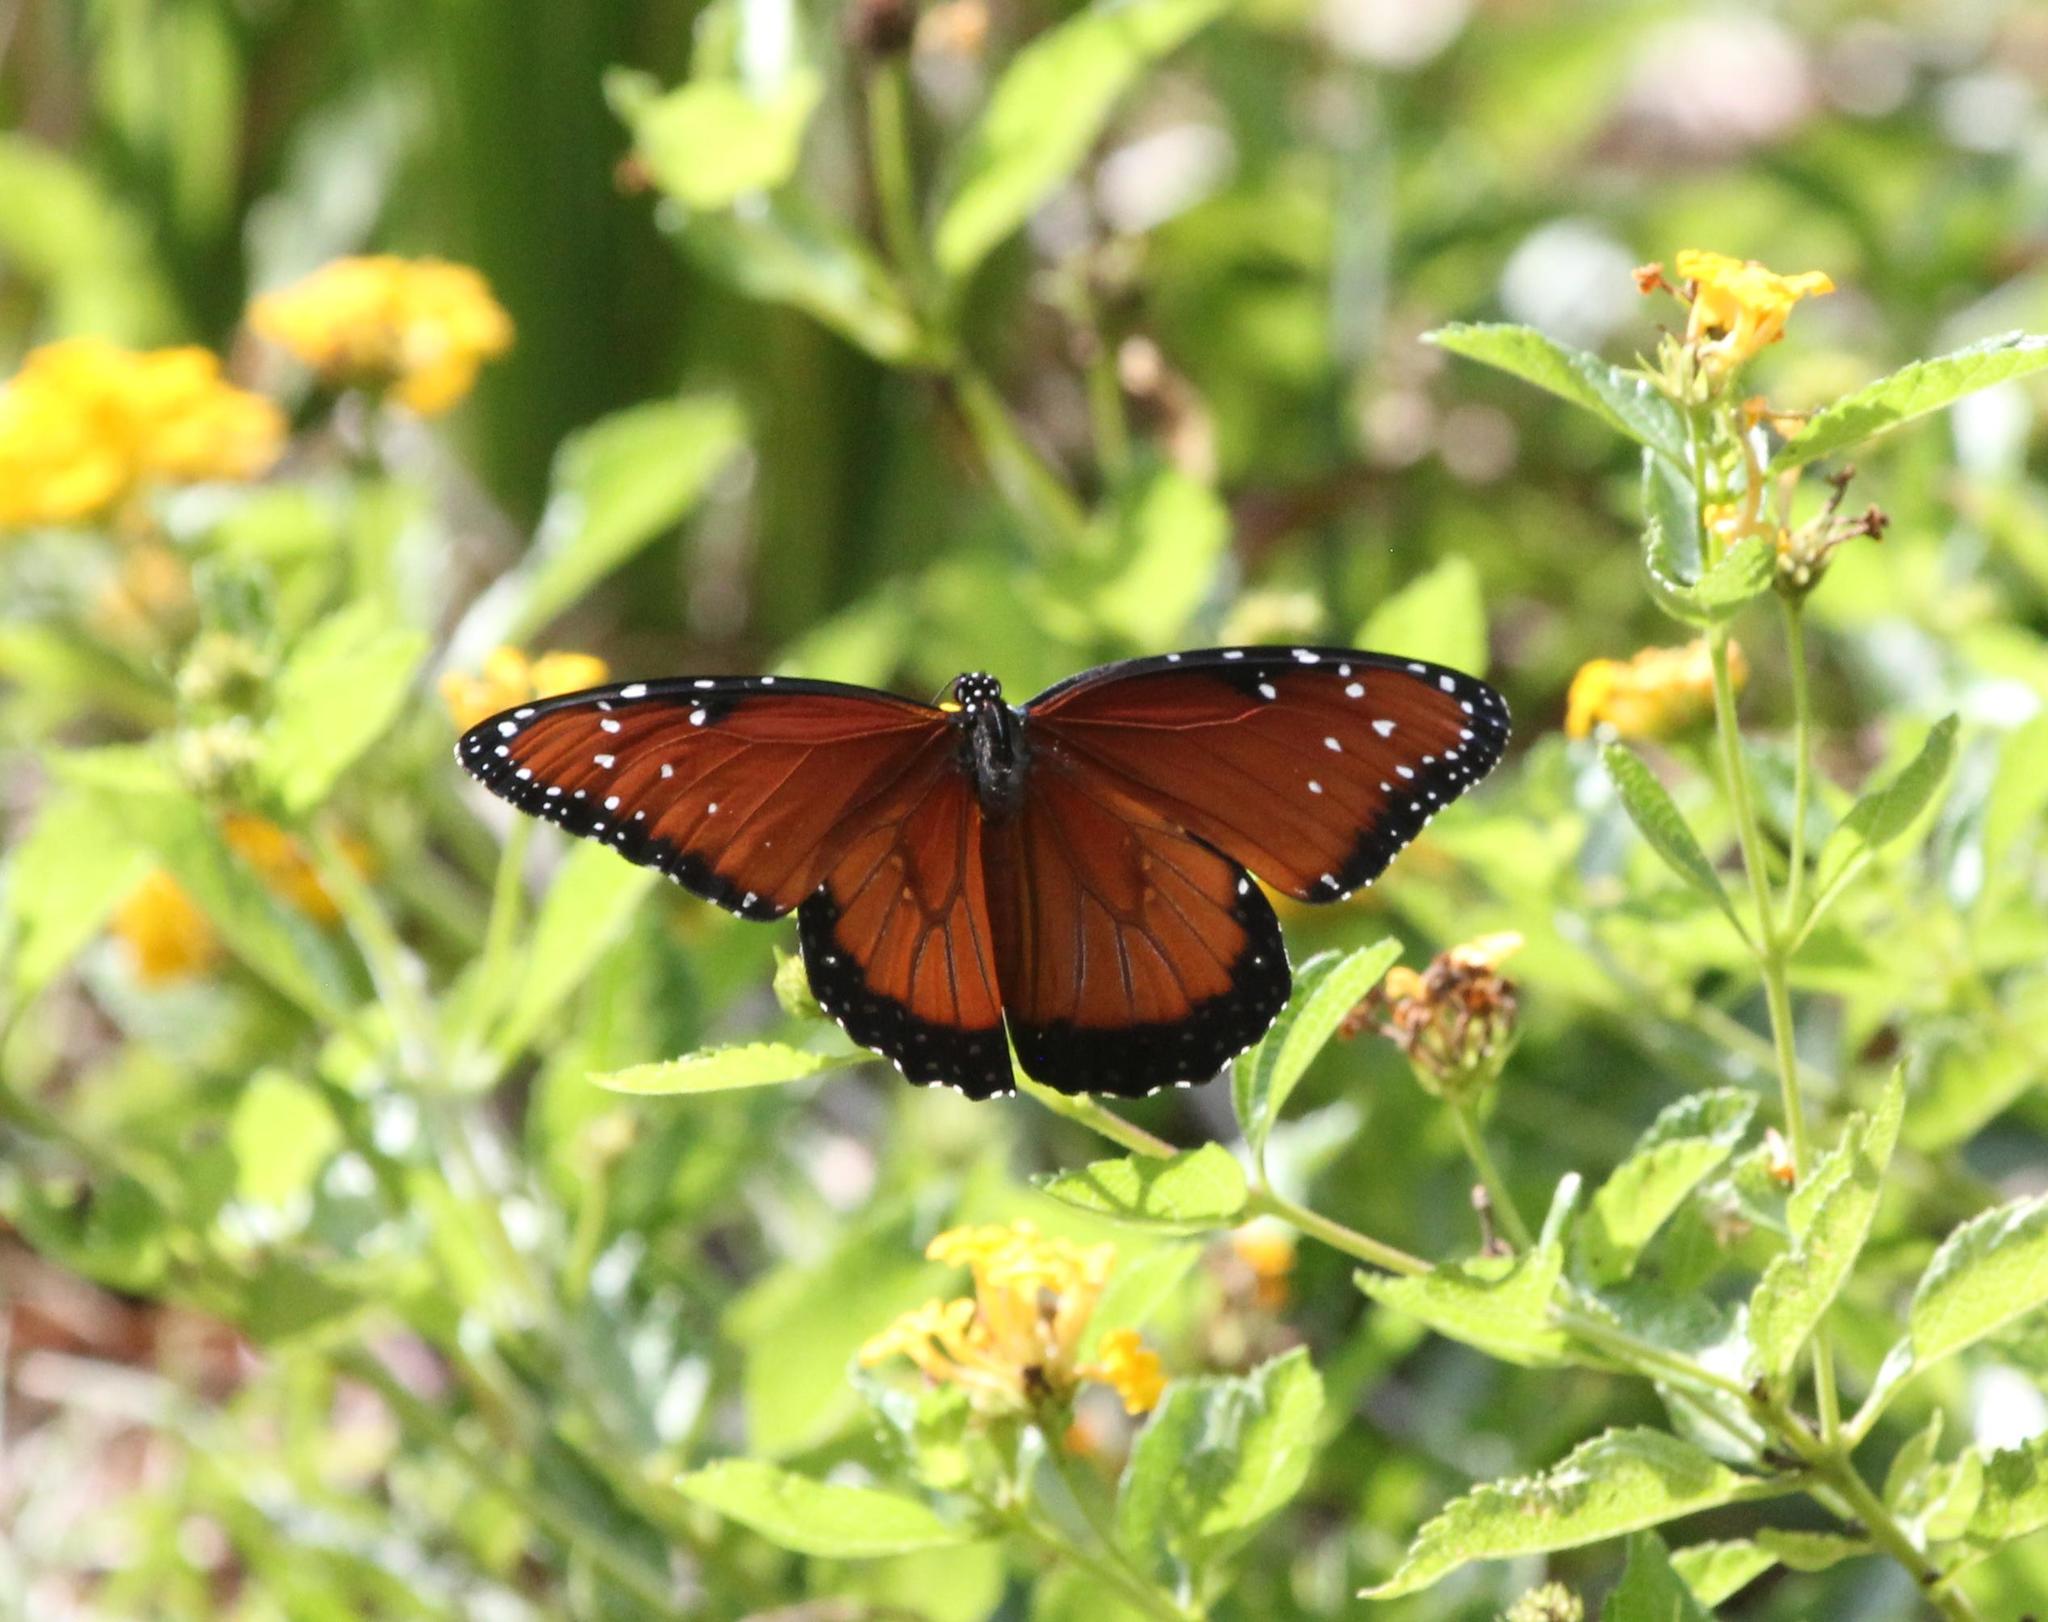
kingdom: Animalia
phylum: Arthropoda
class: Insecta
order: Lepidoptera
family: Nymphalidae
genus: Danaus
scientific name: Danaus gilippus
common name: Queen
